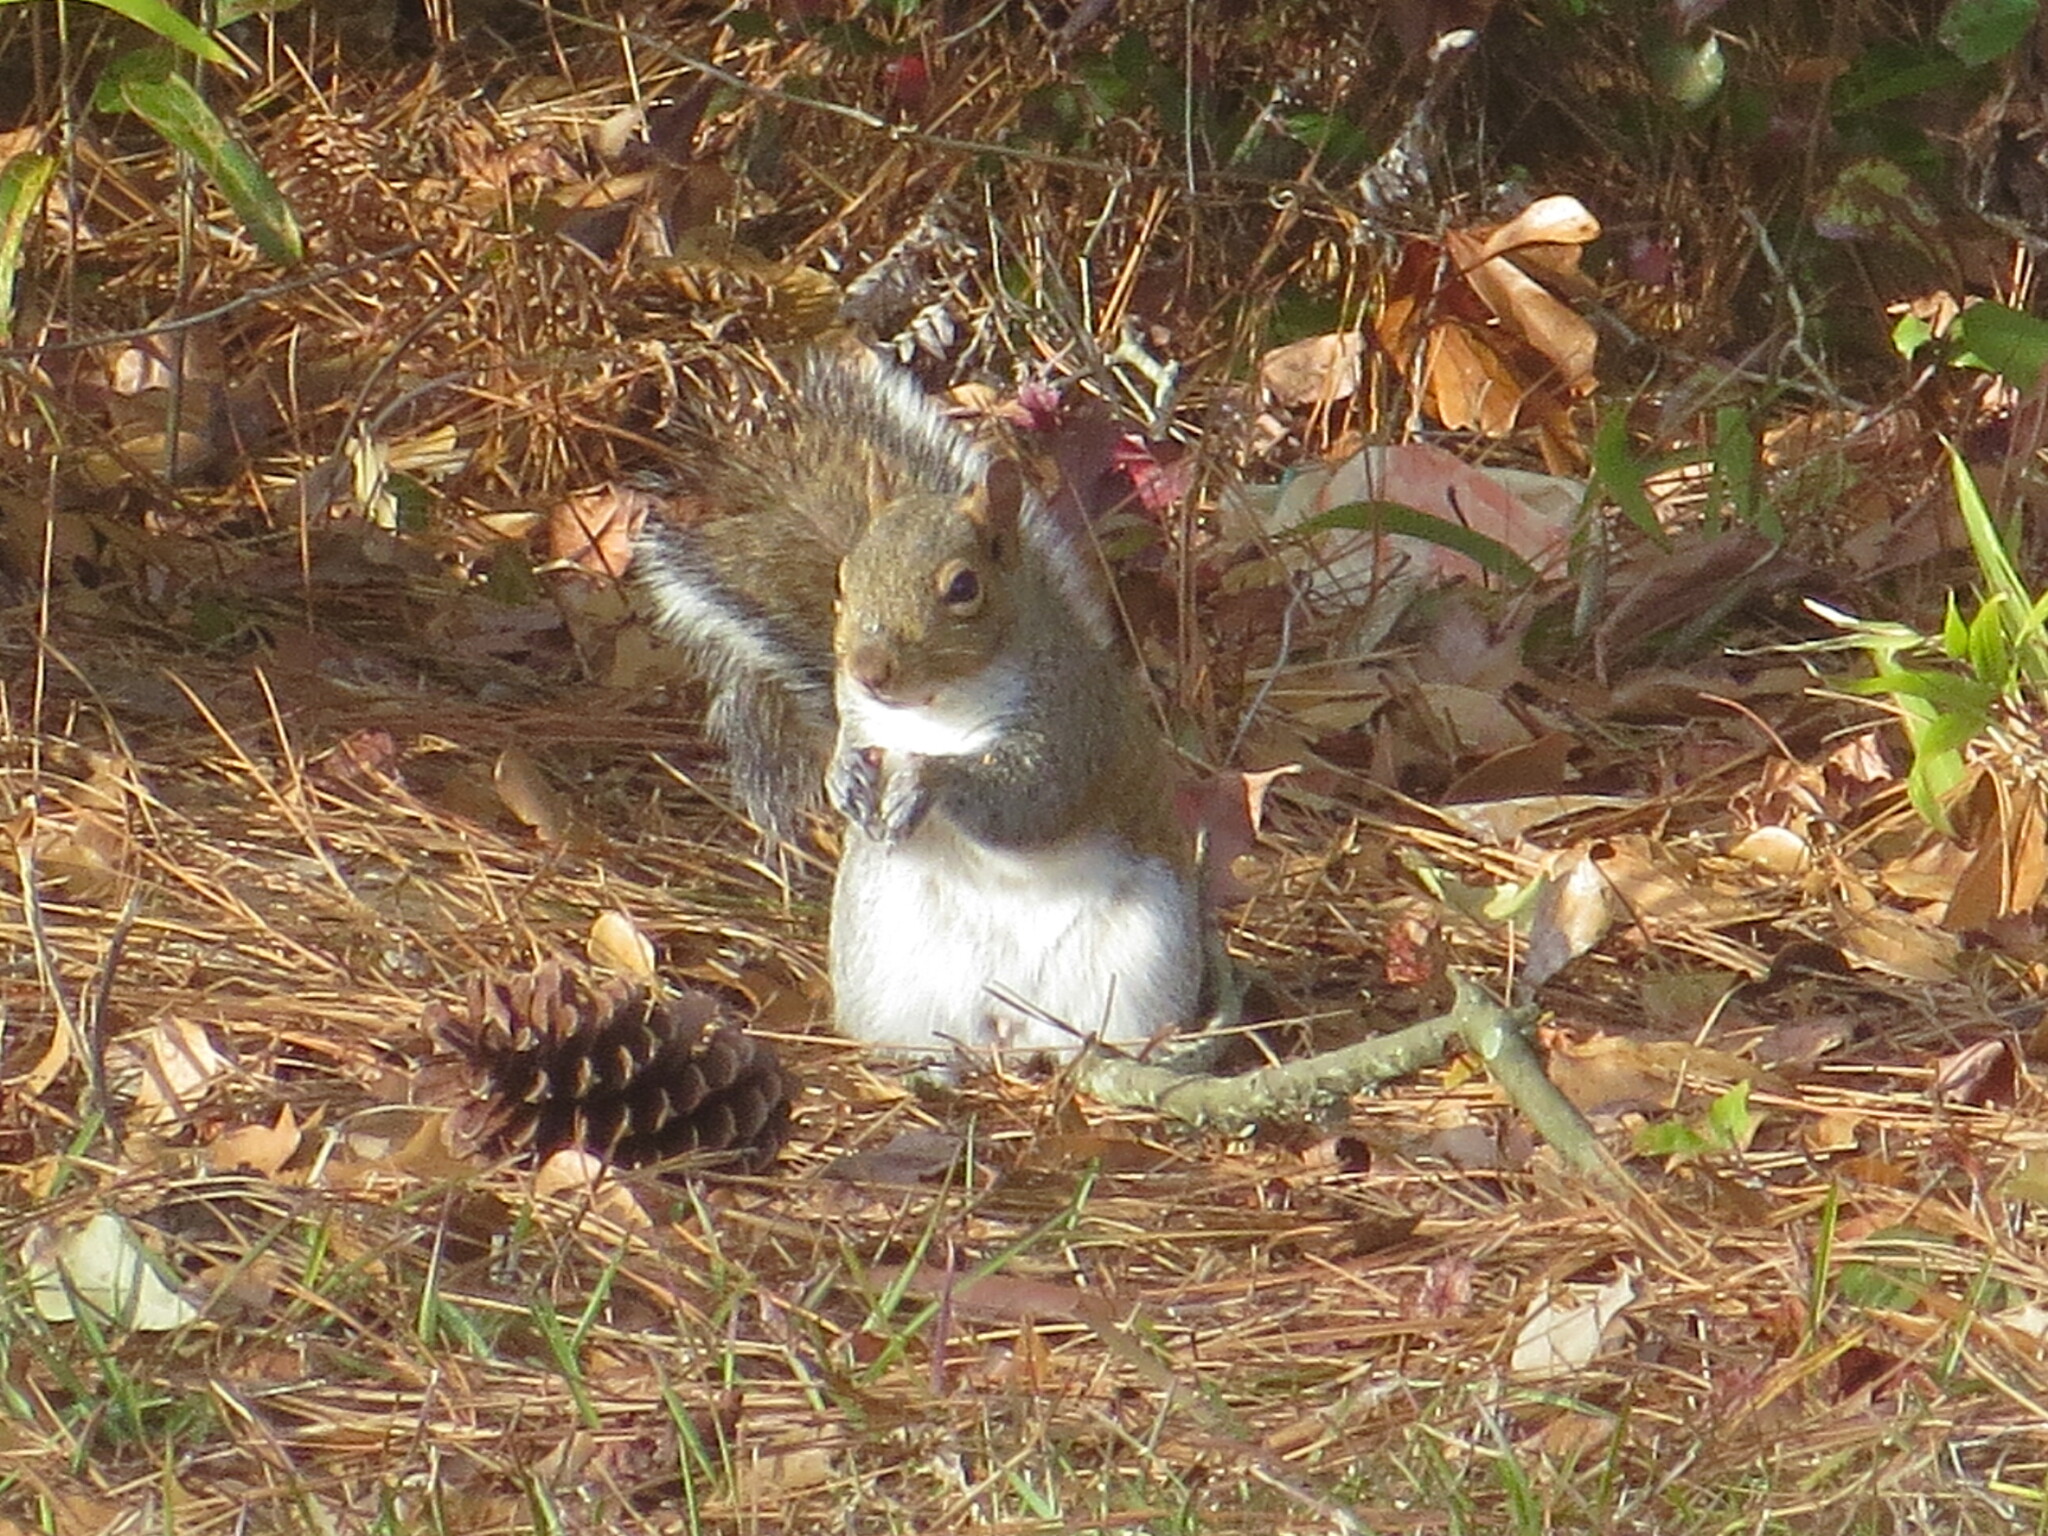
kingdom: Animalia
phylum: Chordata
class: Mammalia
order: Rodentia
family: Sciuridae
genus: Sciurus
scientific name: Sciurus carolinensis
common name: Eastern gray squirrel
